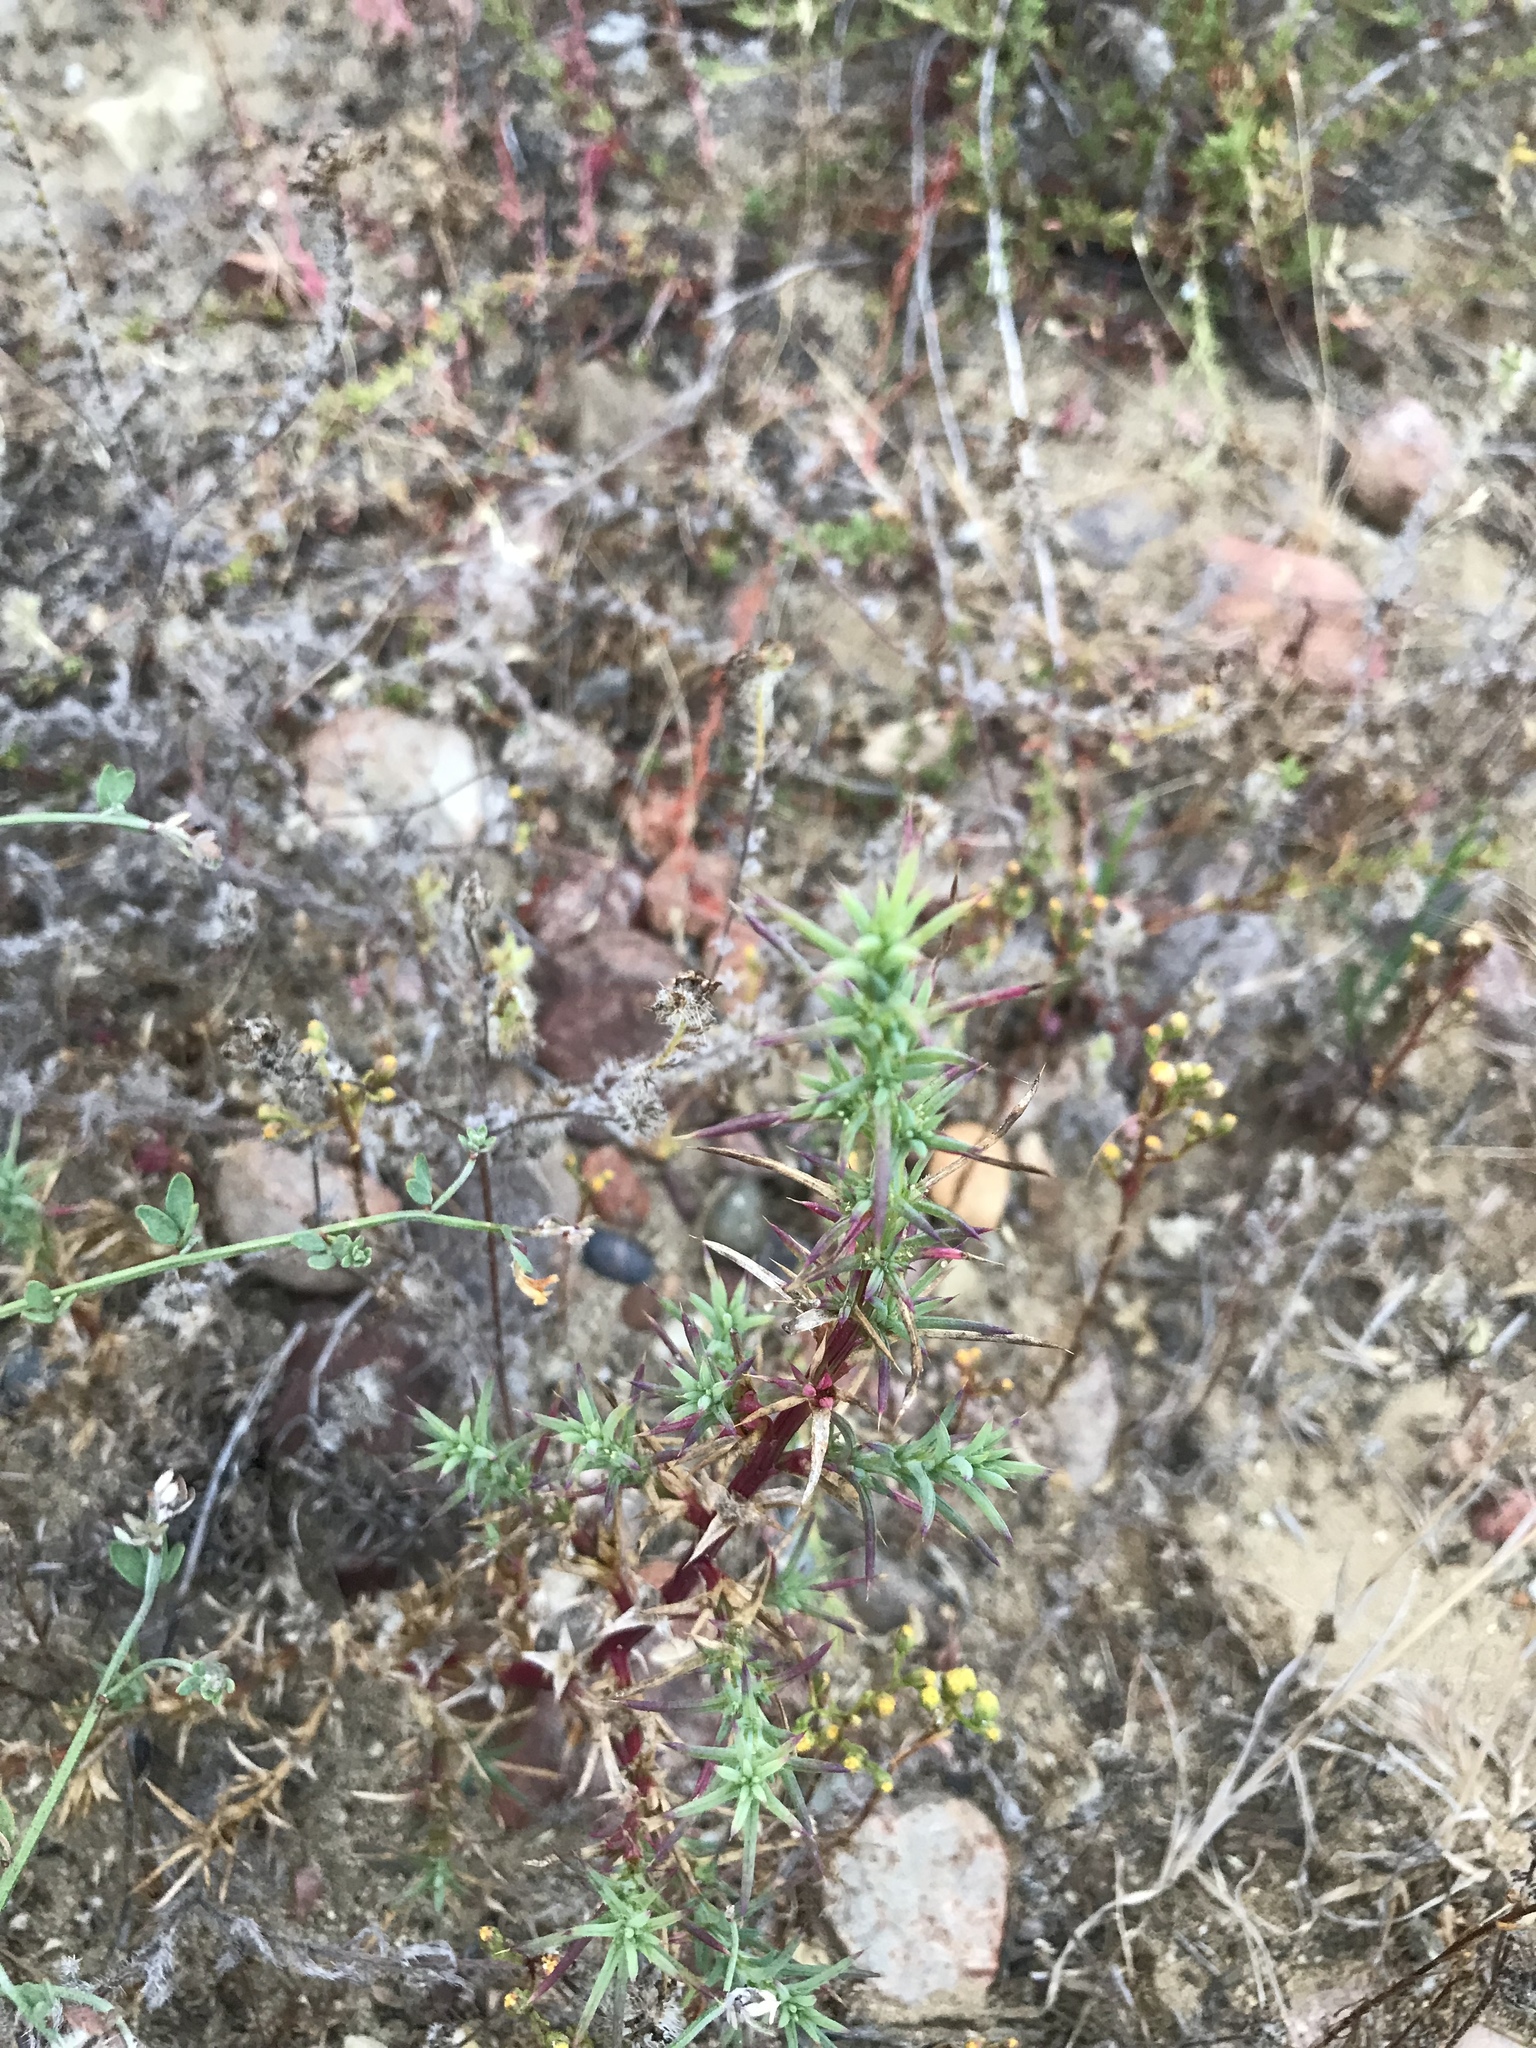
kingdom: Plantae
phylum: Tracheophyta
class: Magnoliopsida
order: Caryophyllales
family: Amaranthaceae
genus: Salsola
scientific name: Salsola australis
